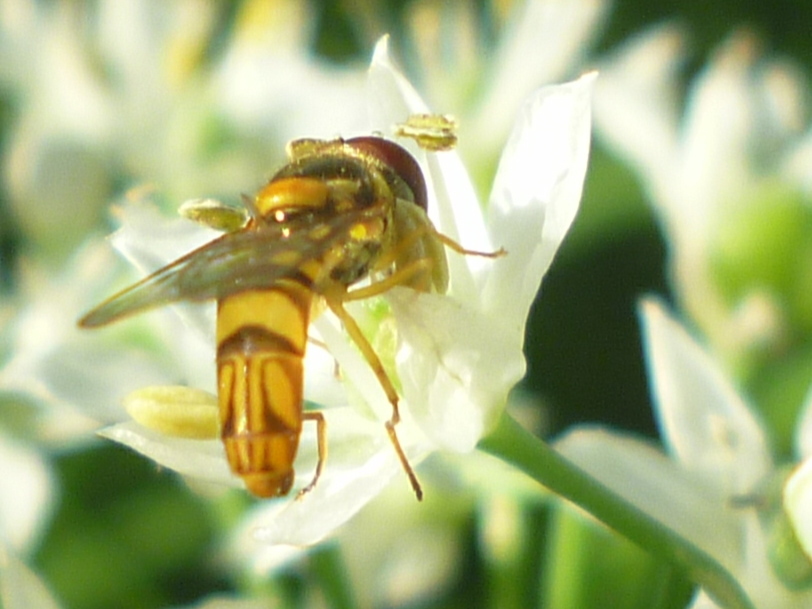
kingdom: Animalia
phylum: Arthropoda
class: Insecta
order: Diptera
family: Syrphidae
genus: Allograpta
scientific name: Allograpta obliqua
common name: Common oblique syrphid
